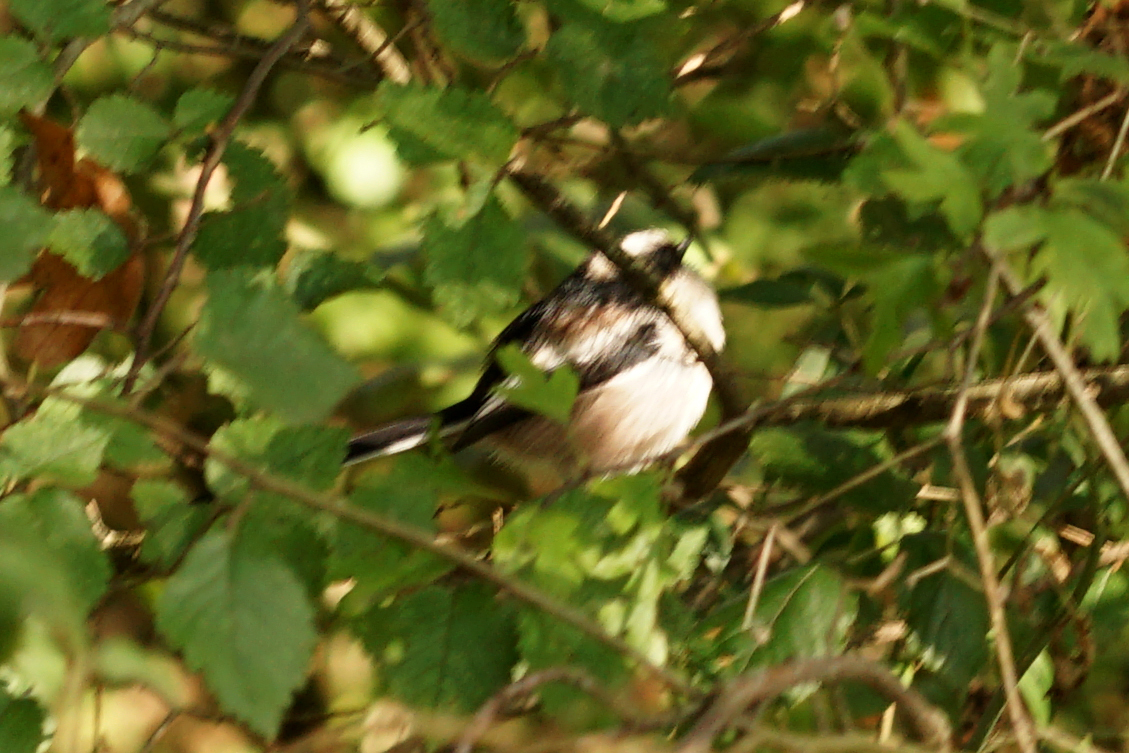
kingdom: Animalia
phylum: Chordata
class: Aves
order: Passeriformes
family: Aegithalidae
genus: Aegithalos
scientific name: Aegithalos caudatus
